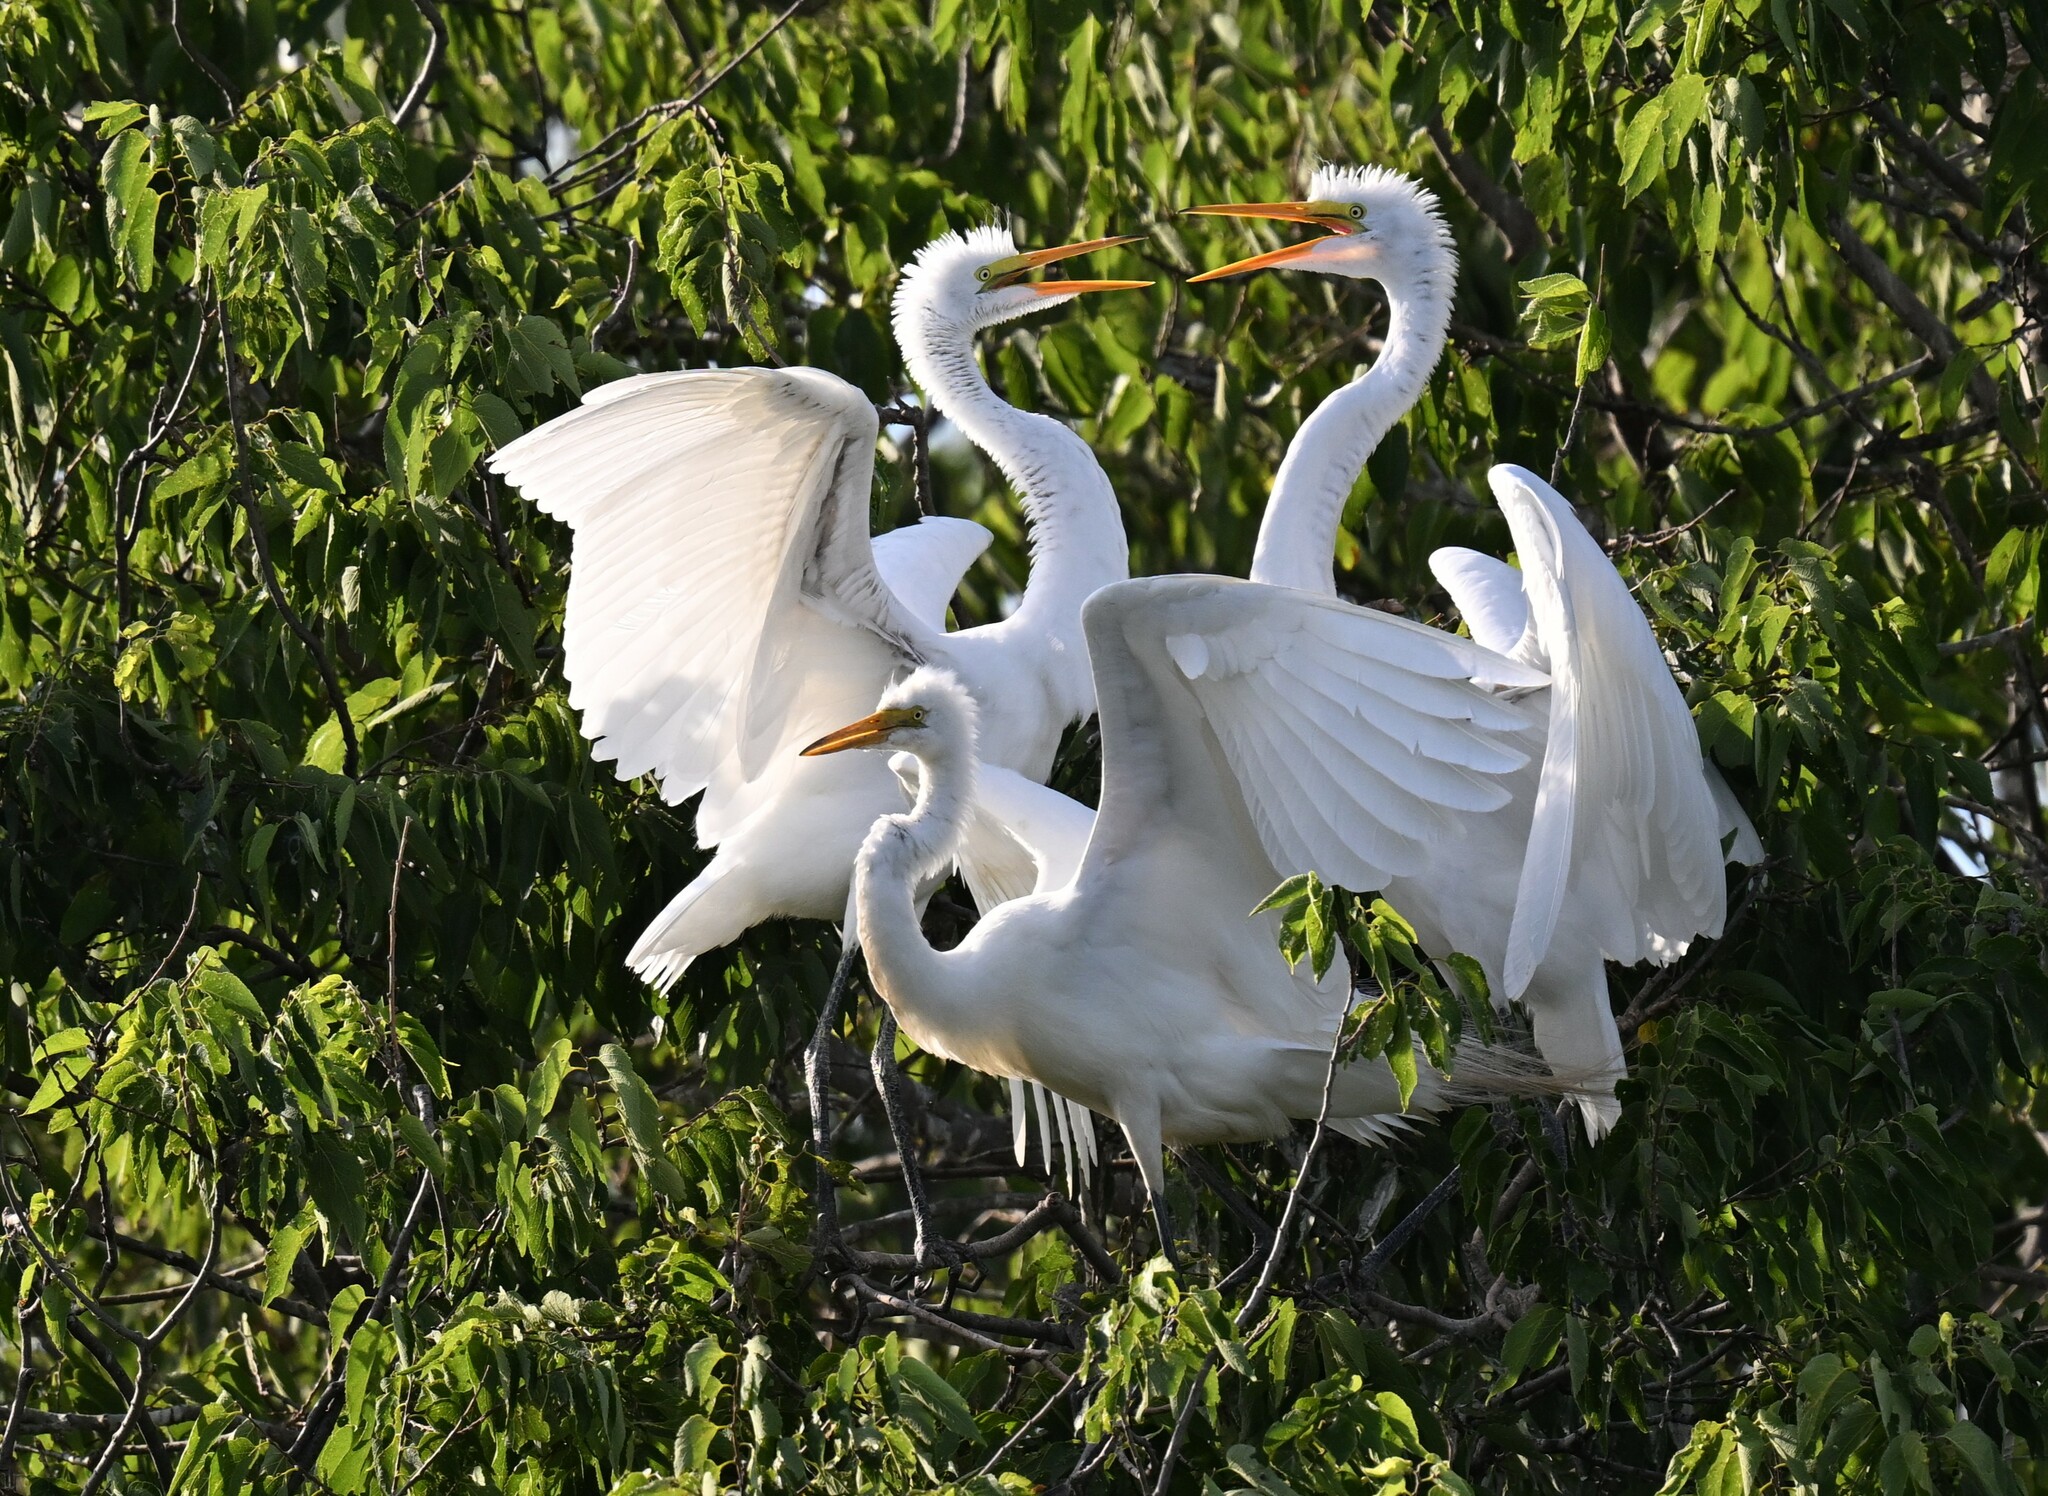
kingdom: Animalia
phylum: Chordata
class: Aves
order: Pelecaniformes
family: Ardeidae
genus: Ardea
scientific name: Ardea alba
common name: Great egret
